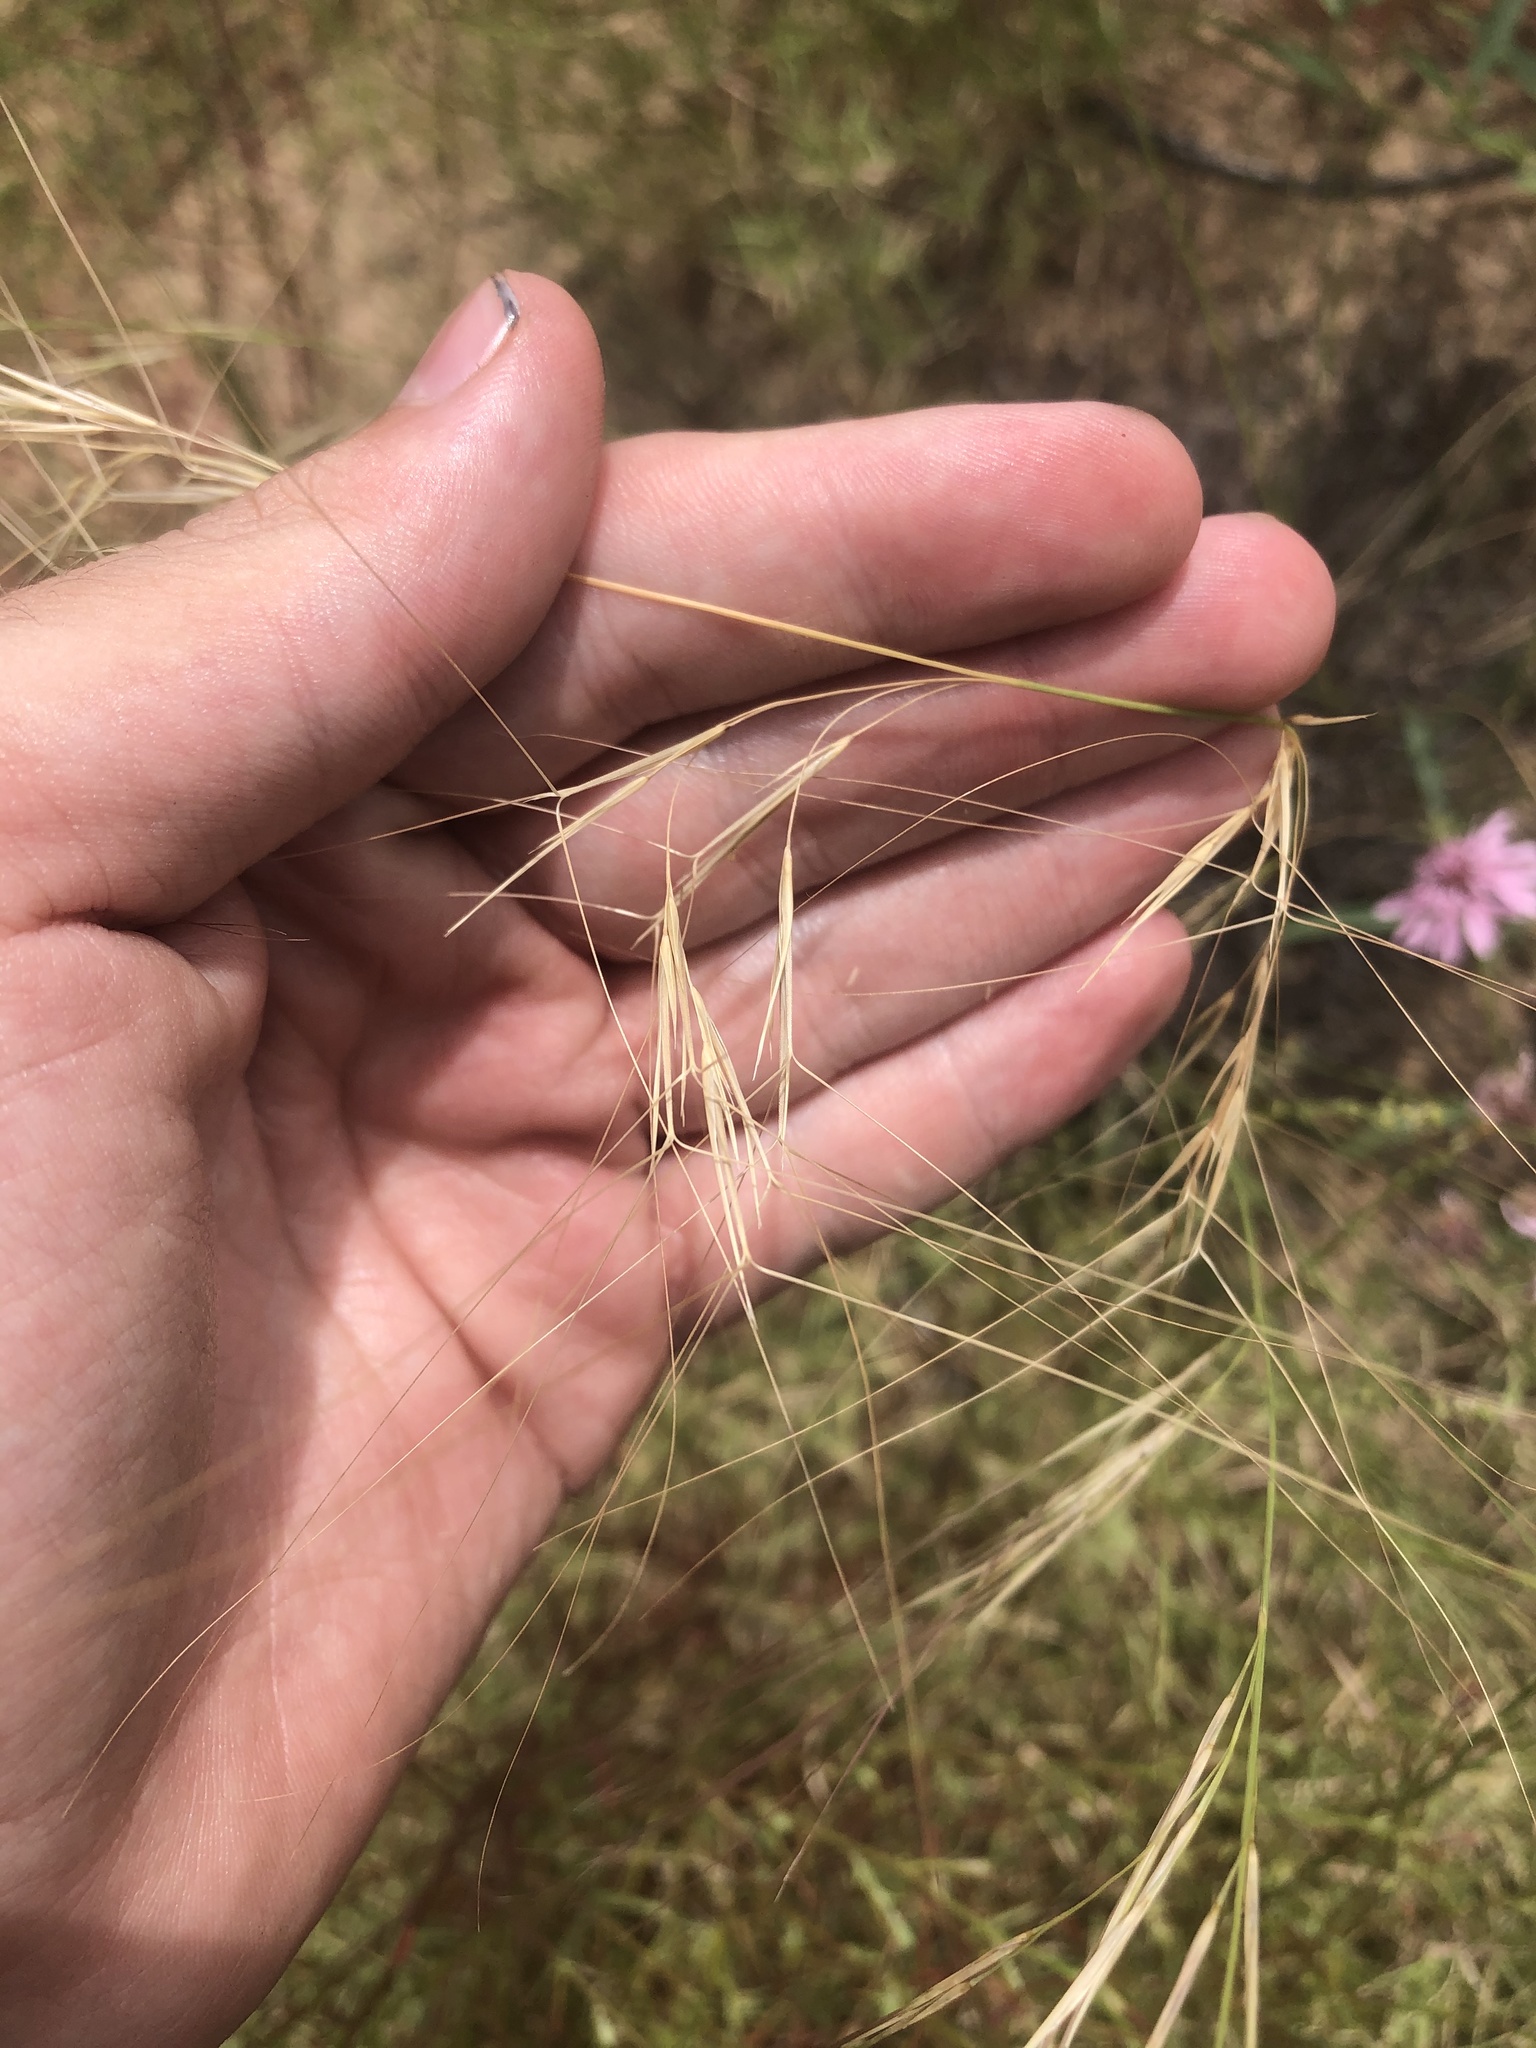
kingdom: Plantae
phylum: Tracheophyta
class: Liliopsida
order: Poales
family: Poaceae
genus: Aristida
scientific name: Aristida purpurea
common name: Purple threeawn
